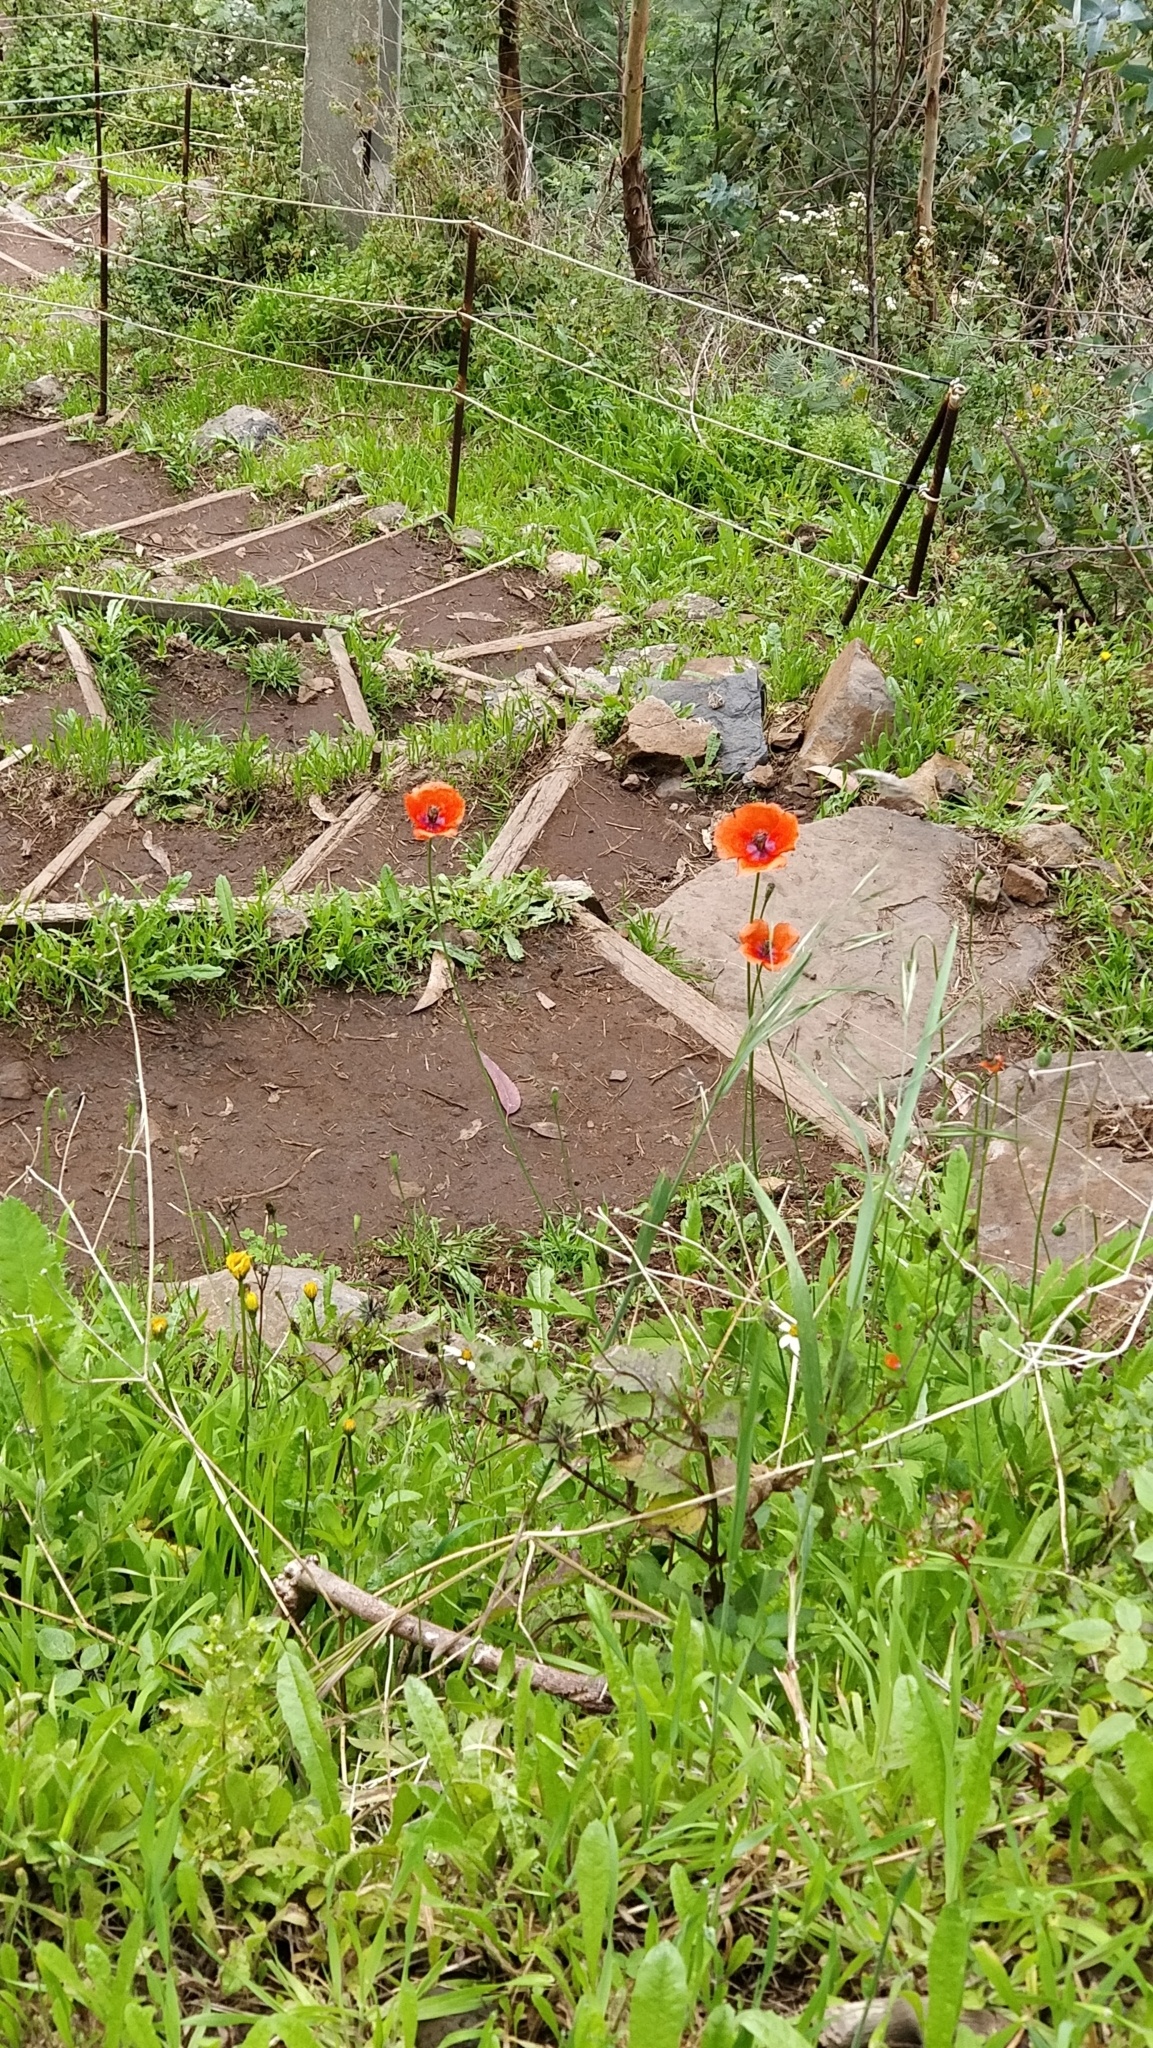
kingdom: Plantae
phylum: Tracheophyta
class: Magnoliopsida
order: Ranunculales
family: Papaveraceae
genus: Papaver
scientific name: Papaver rhoeas
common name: Corn poppy
